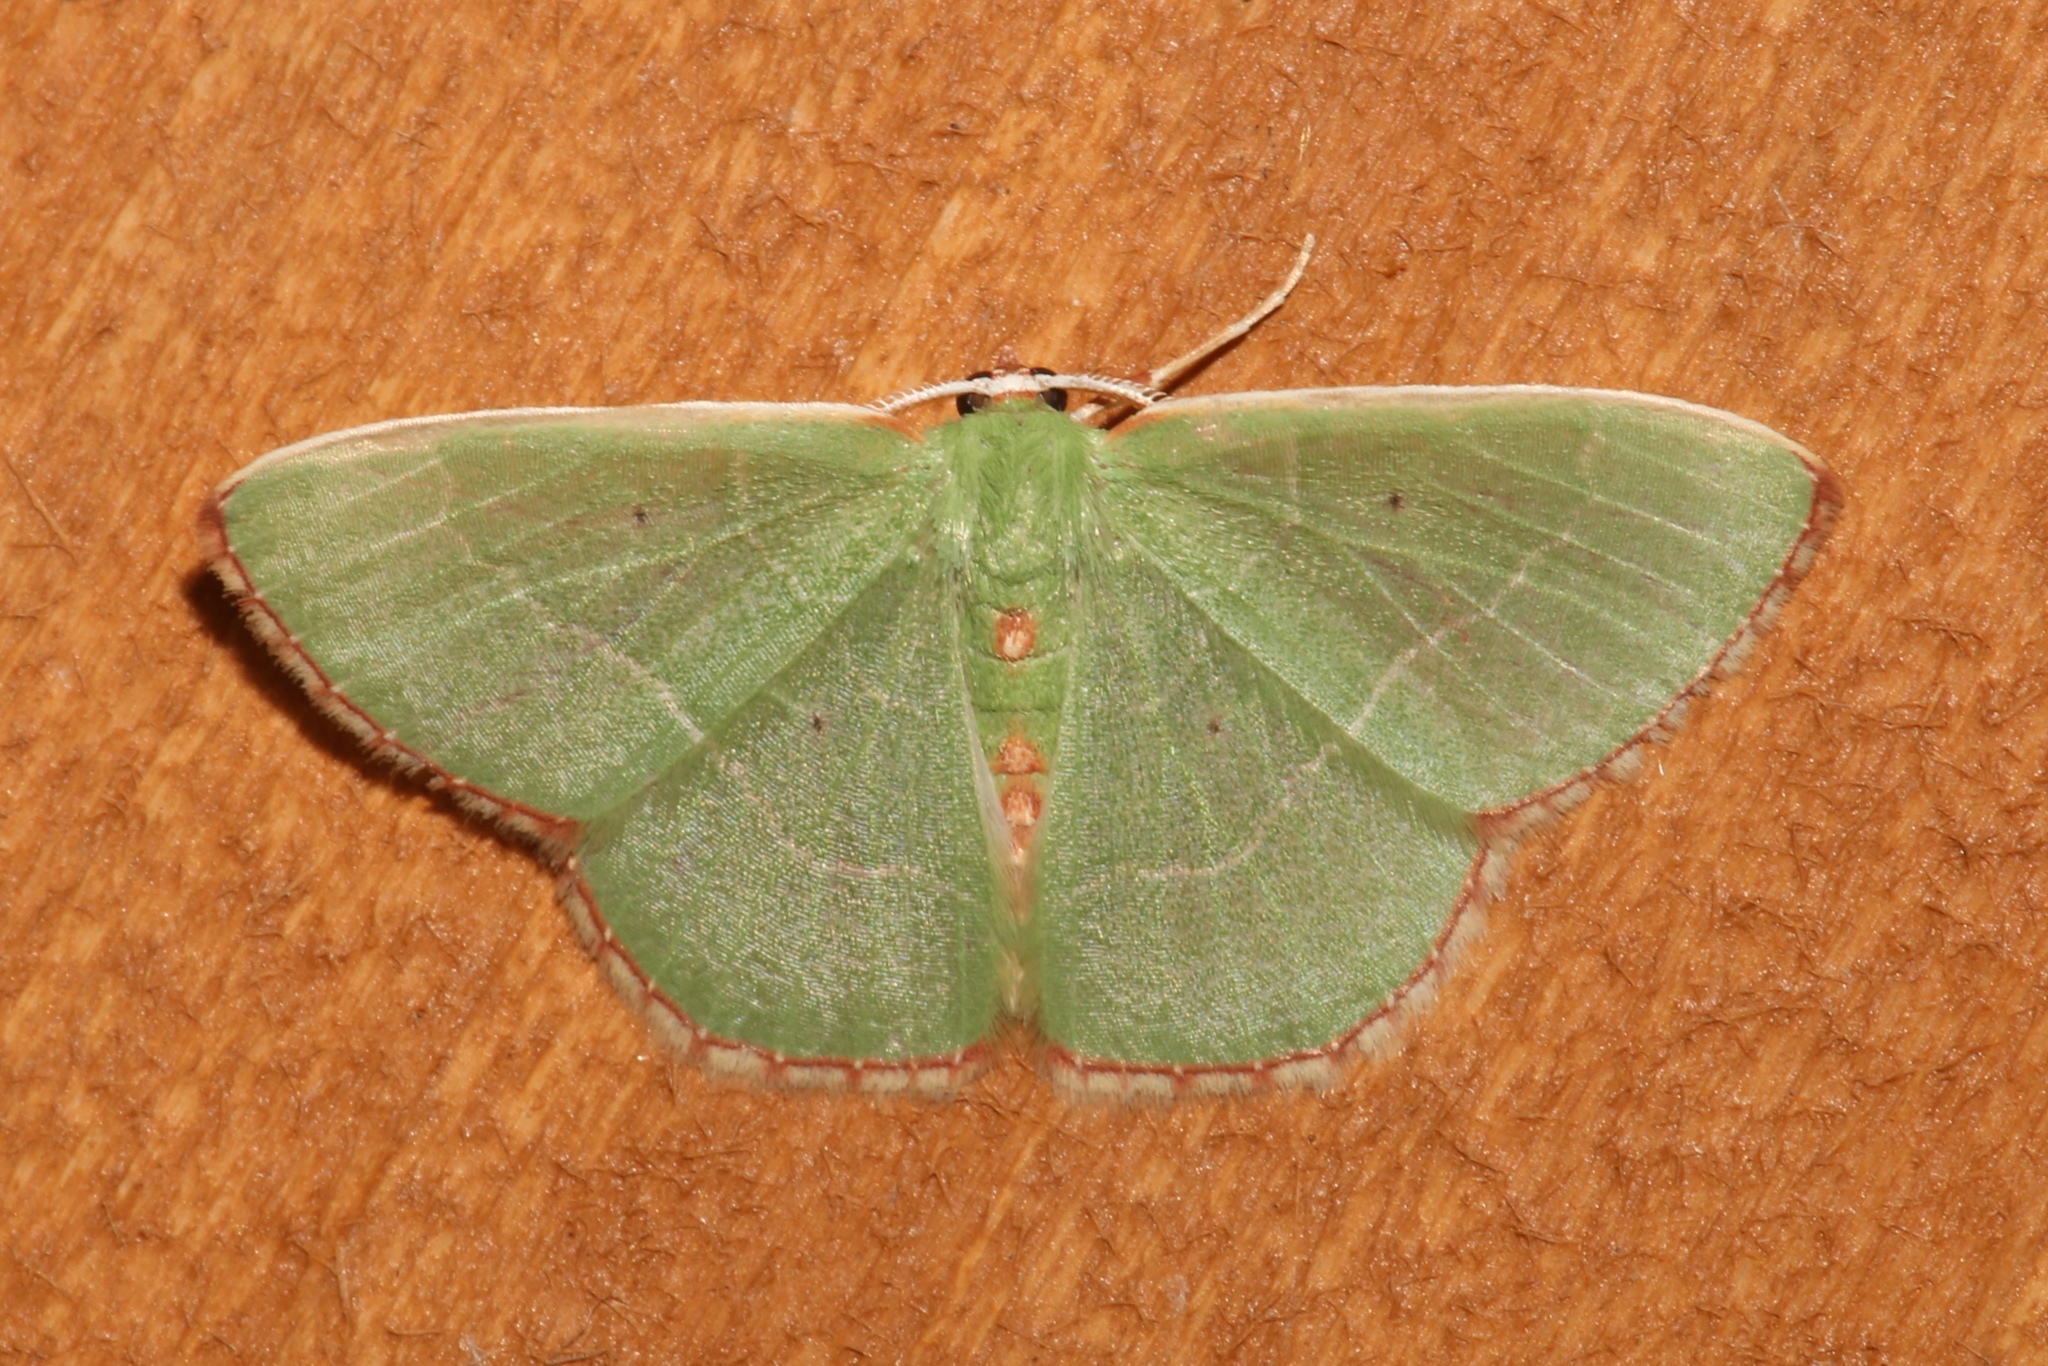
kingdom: Animalia
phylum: Arthropoda
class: Insecta
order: Lepidoptera
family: Geometridae
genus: Nemoria
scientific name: Nemoria bistriaria
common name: Red-fringed emerald
